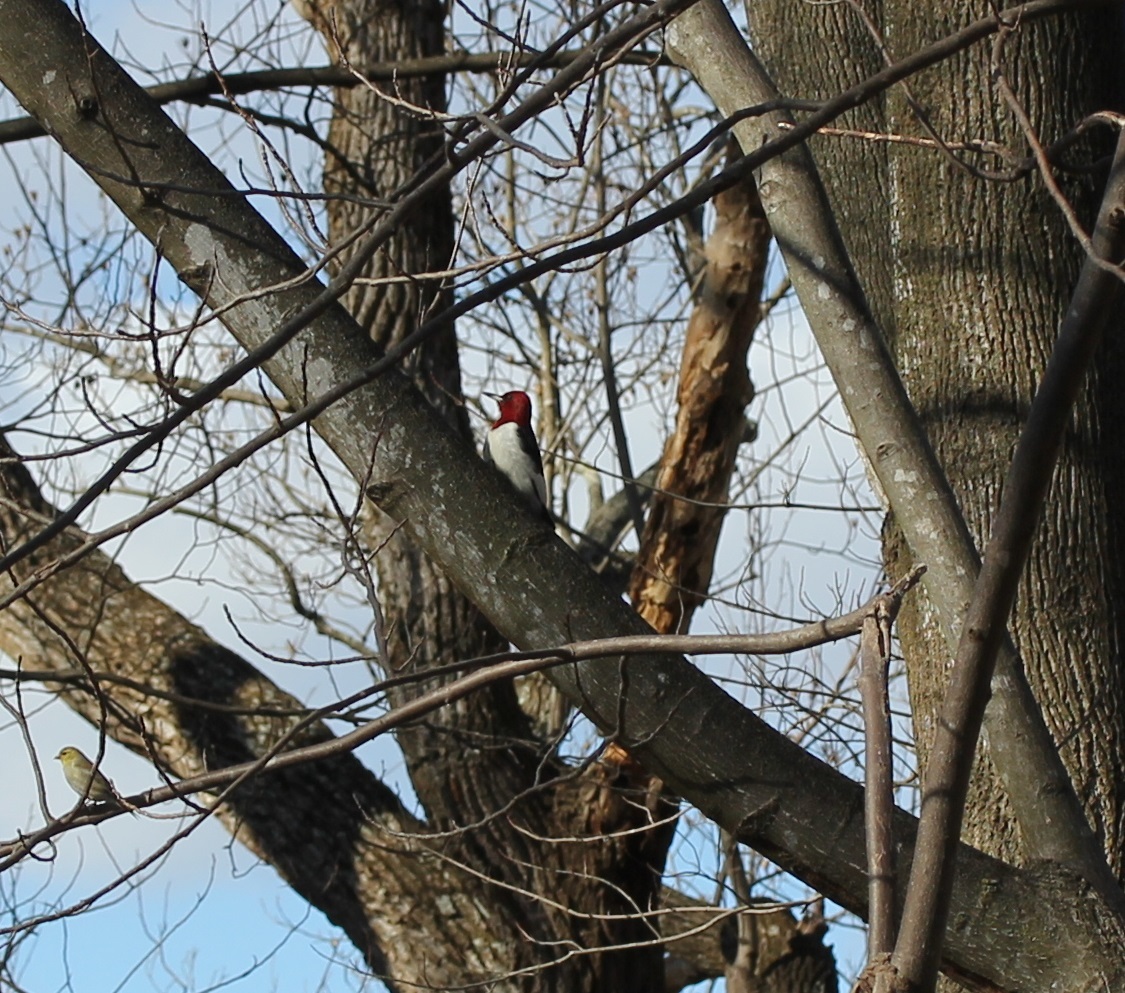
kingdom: Animalia
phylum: Chordata
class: Aves
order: Piciformes
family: Picidae
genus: Melanerpes
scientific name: Melanerpes erythrocephalus
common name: Red-headed woodpecker
